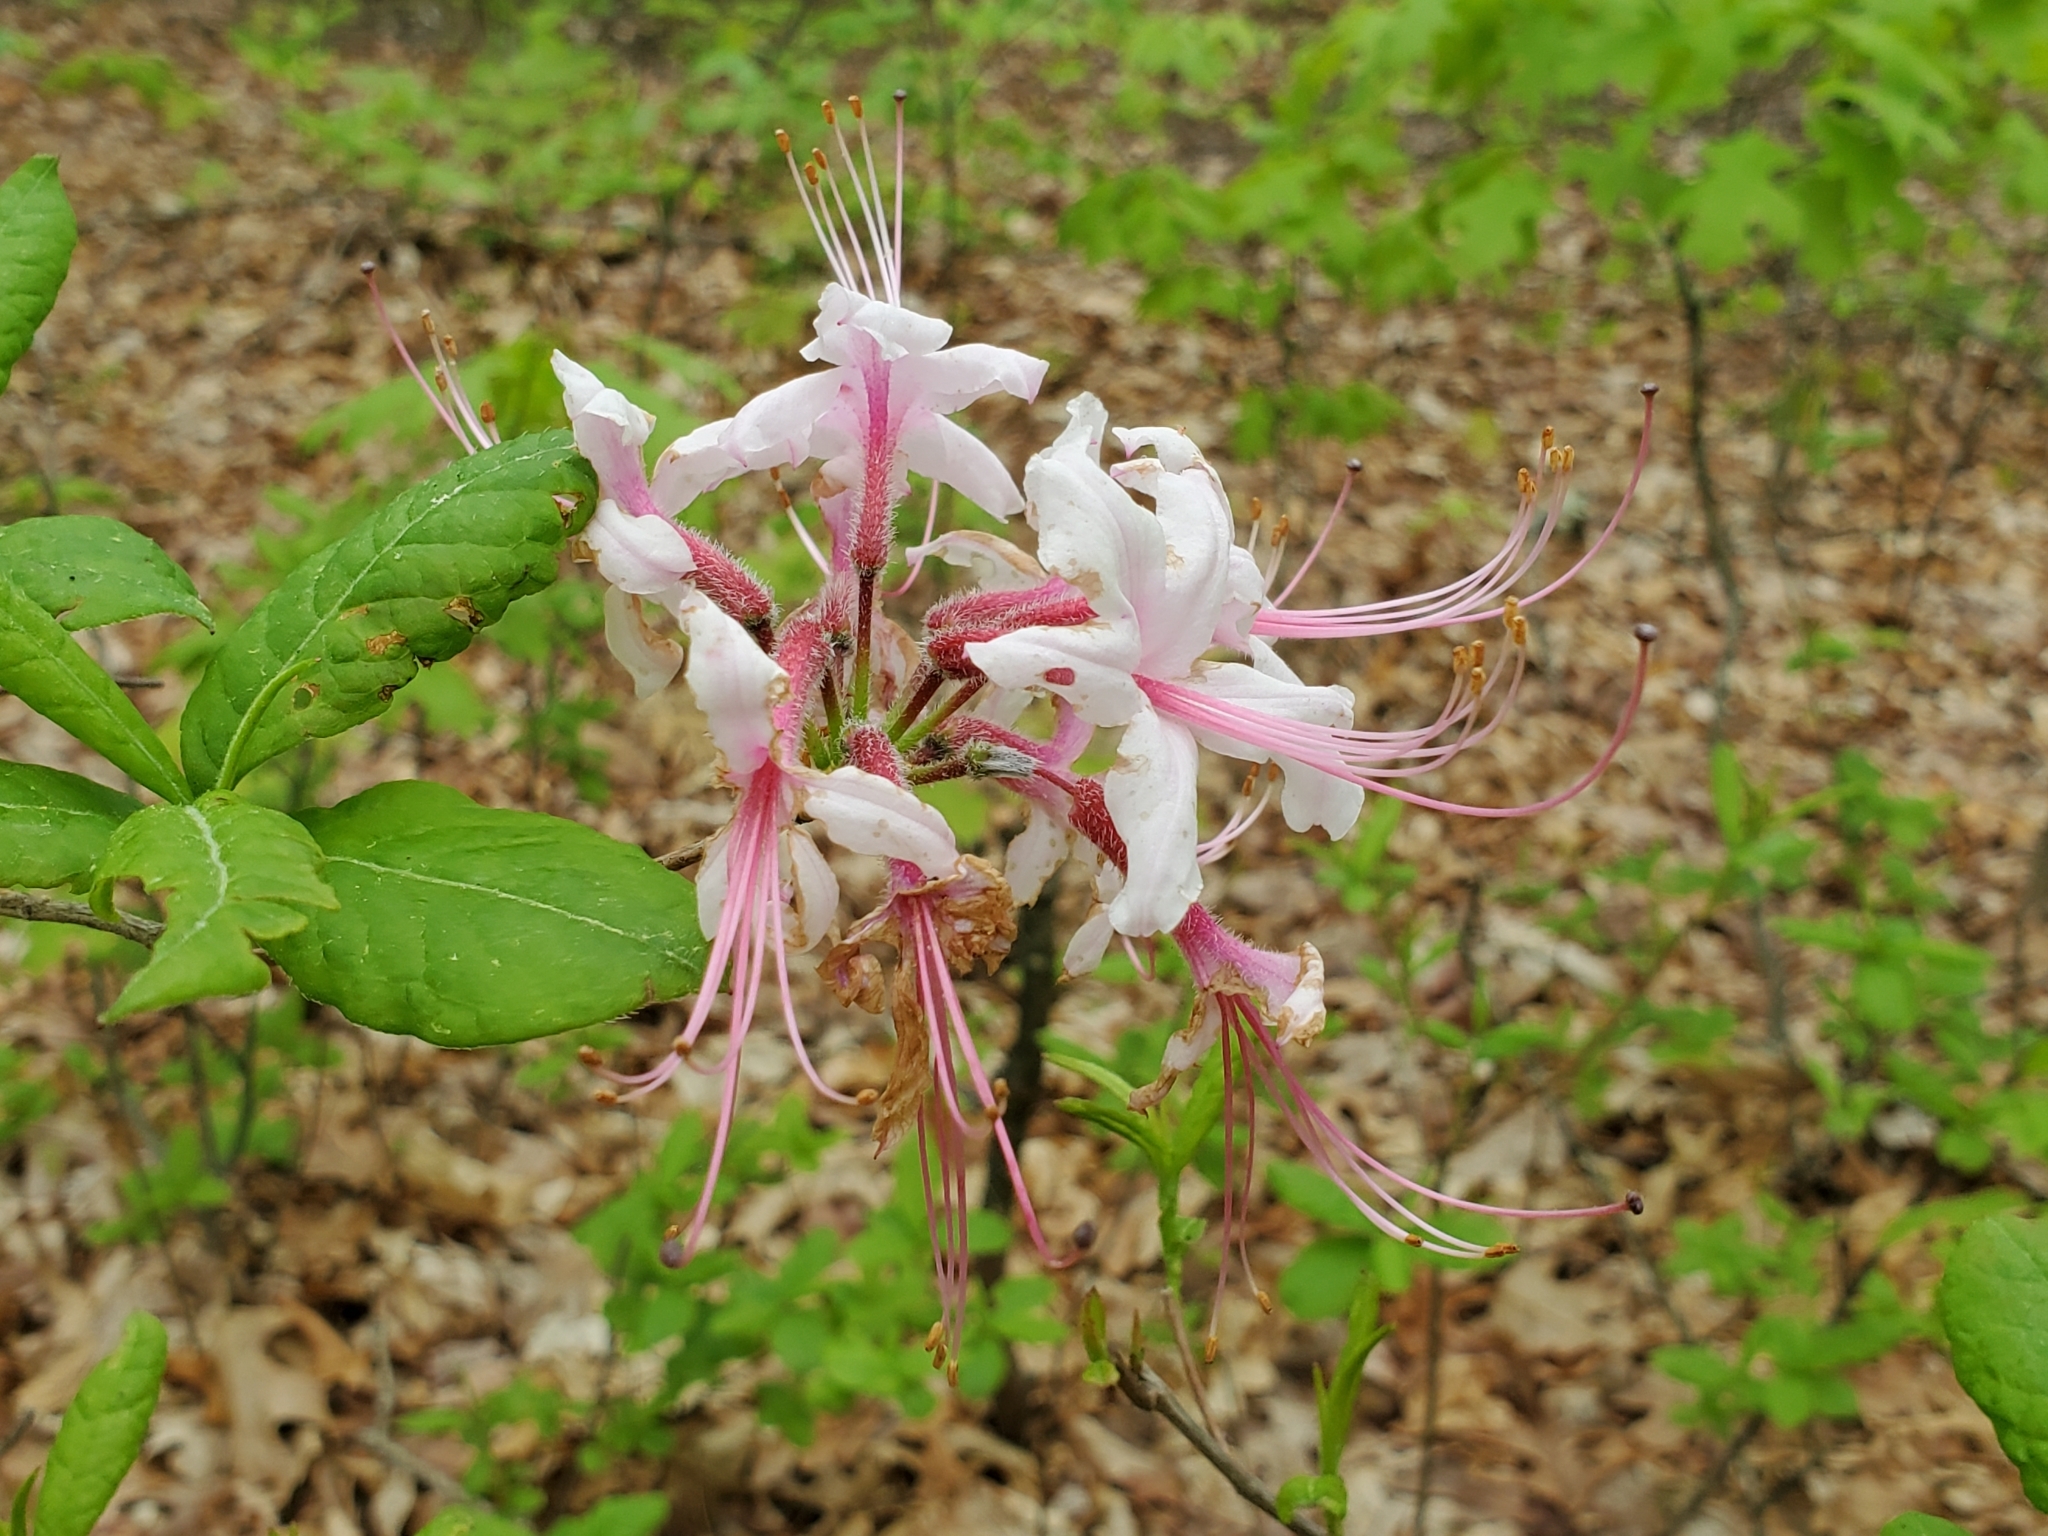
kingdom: Plantae
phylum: Tracheophyta
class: Magnoliopsida
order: Ericales
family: Ericaceae
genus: Rhododendron
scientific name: Rhododendron periclymenoides
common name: Election-pink
